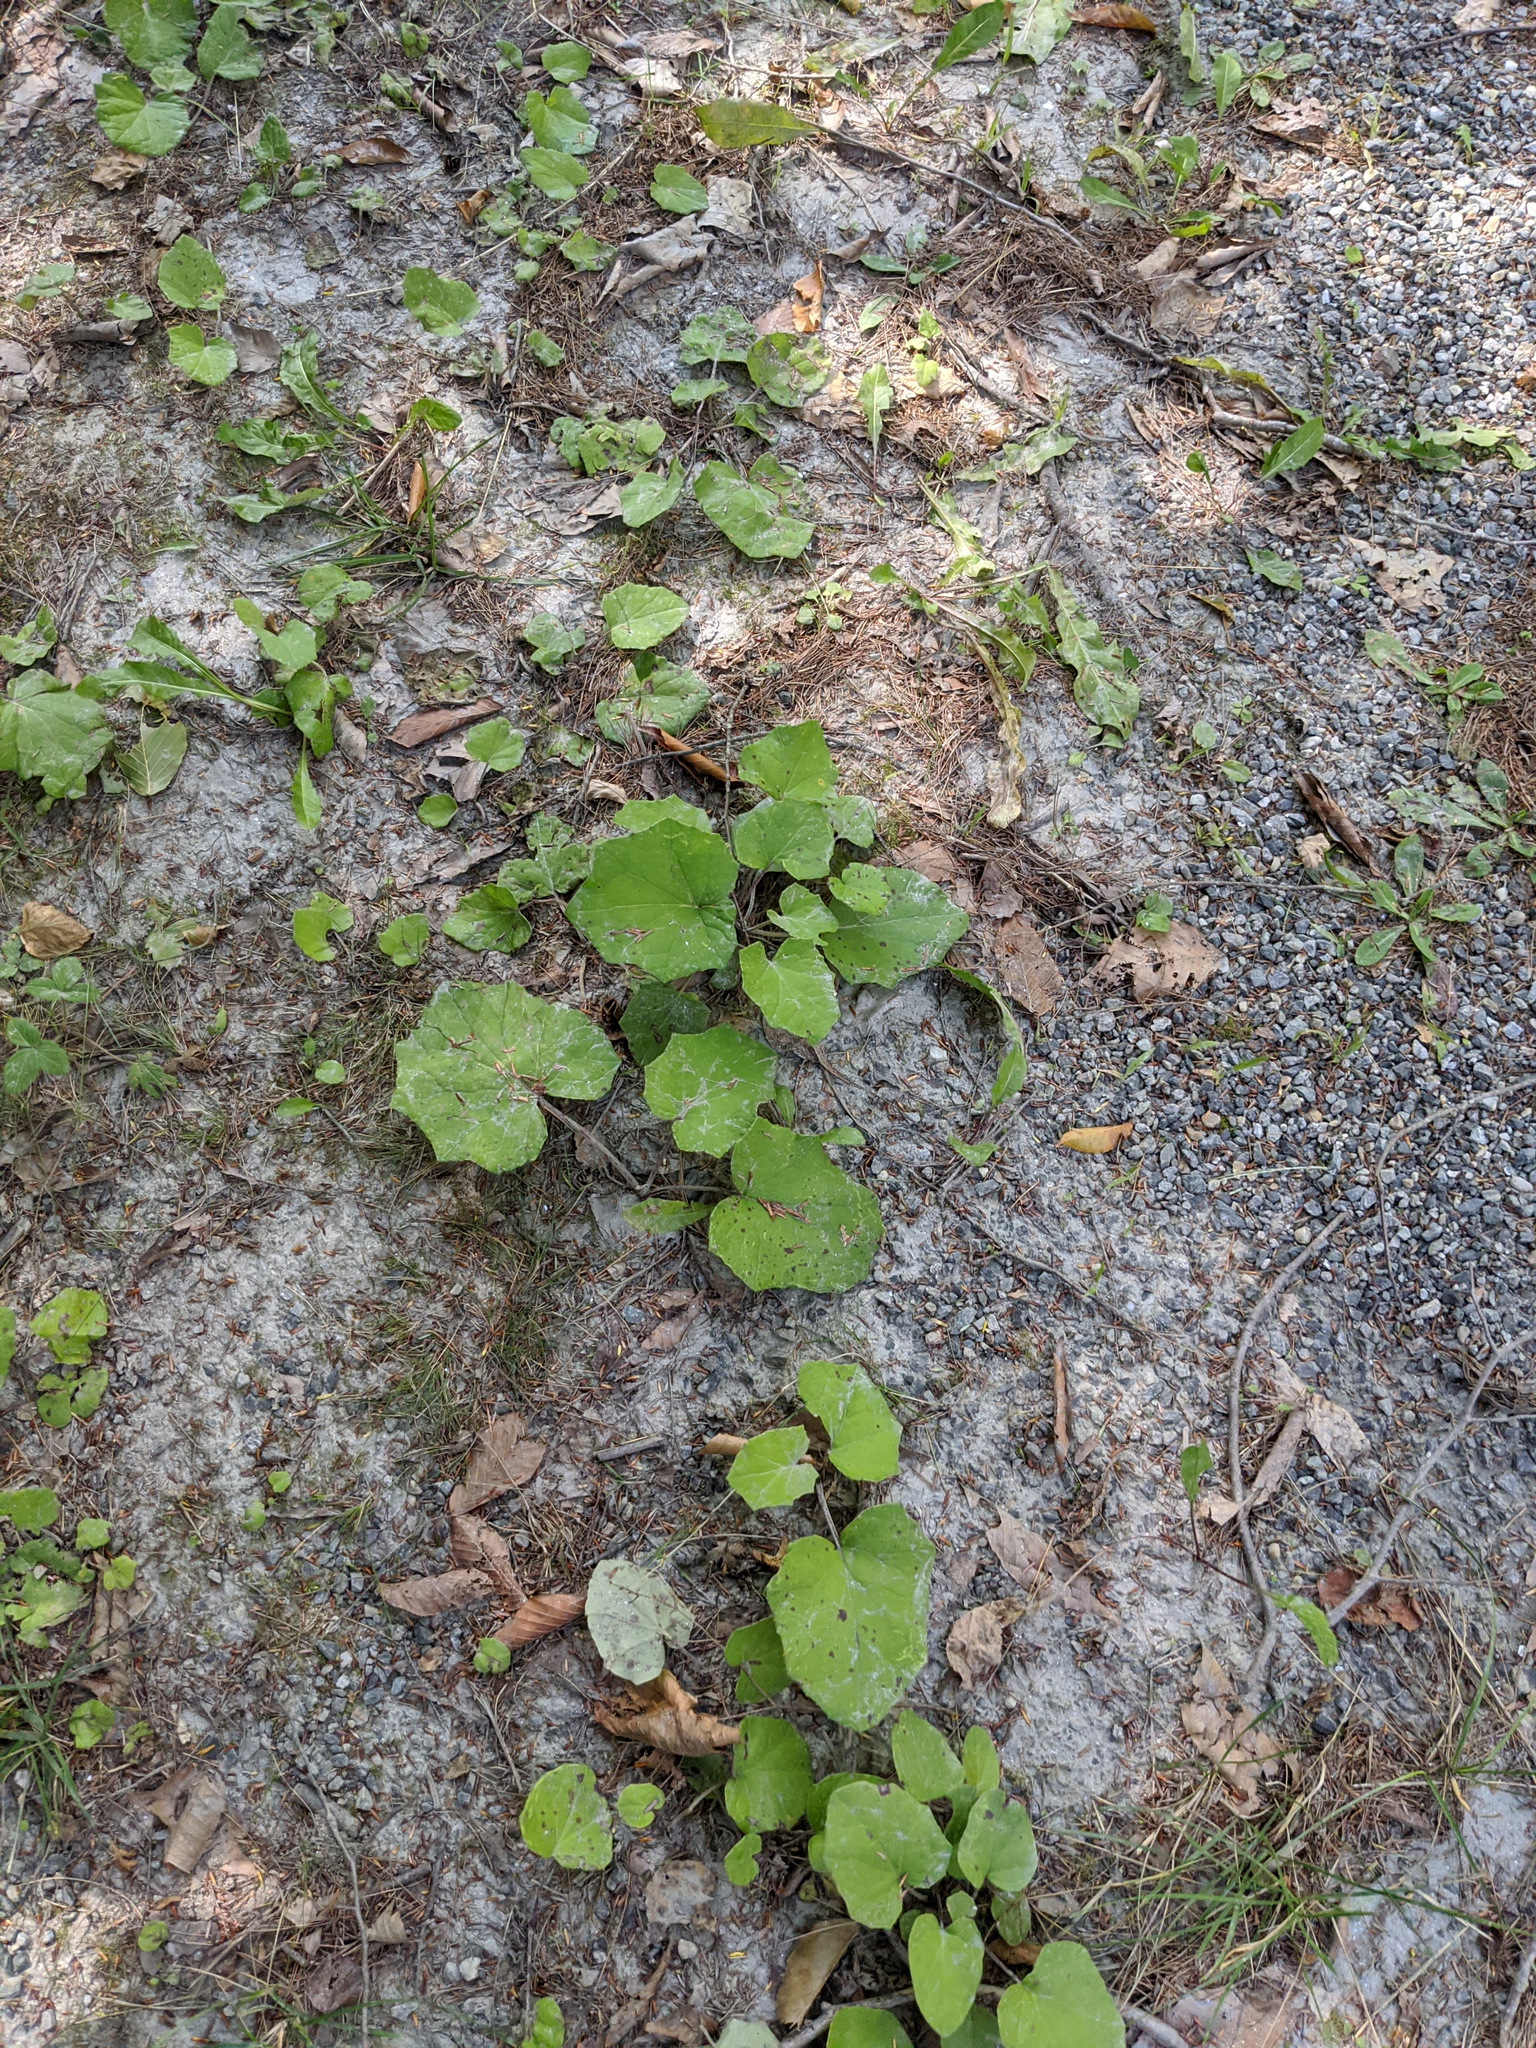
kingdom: Plantae
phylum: Tracheophyta
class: Magnoliopsida
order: Asterales
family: Asteraceae
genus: Tussilago
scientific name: Tussilago farfara
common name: Coltsfoot
